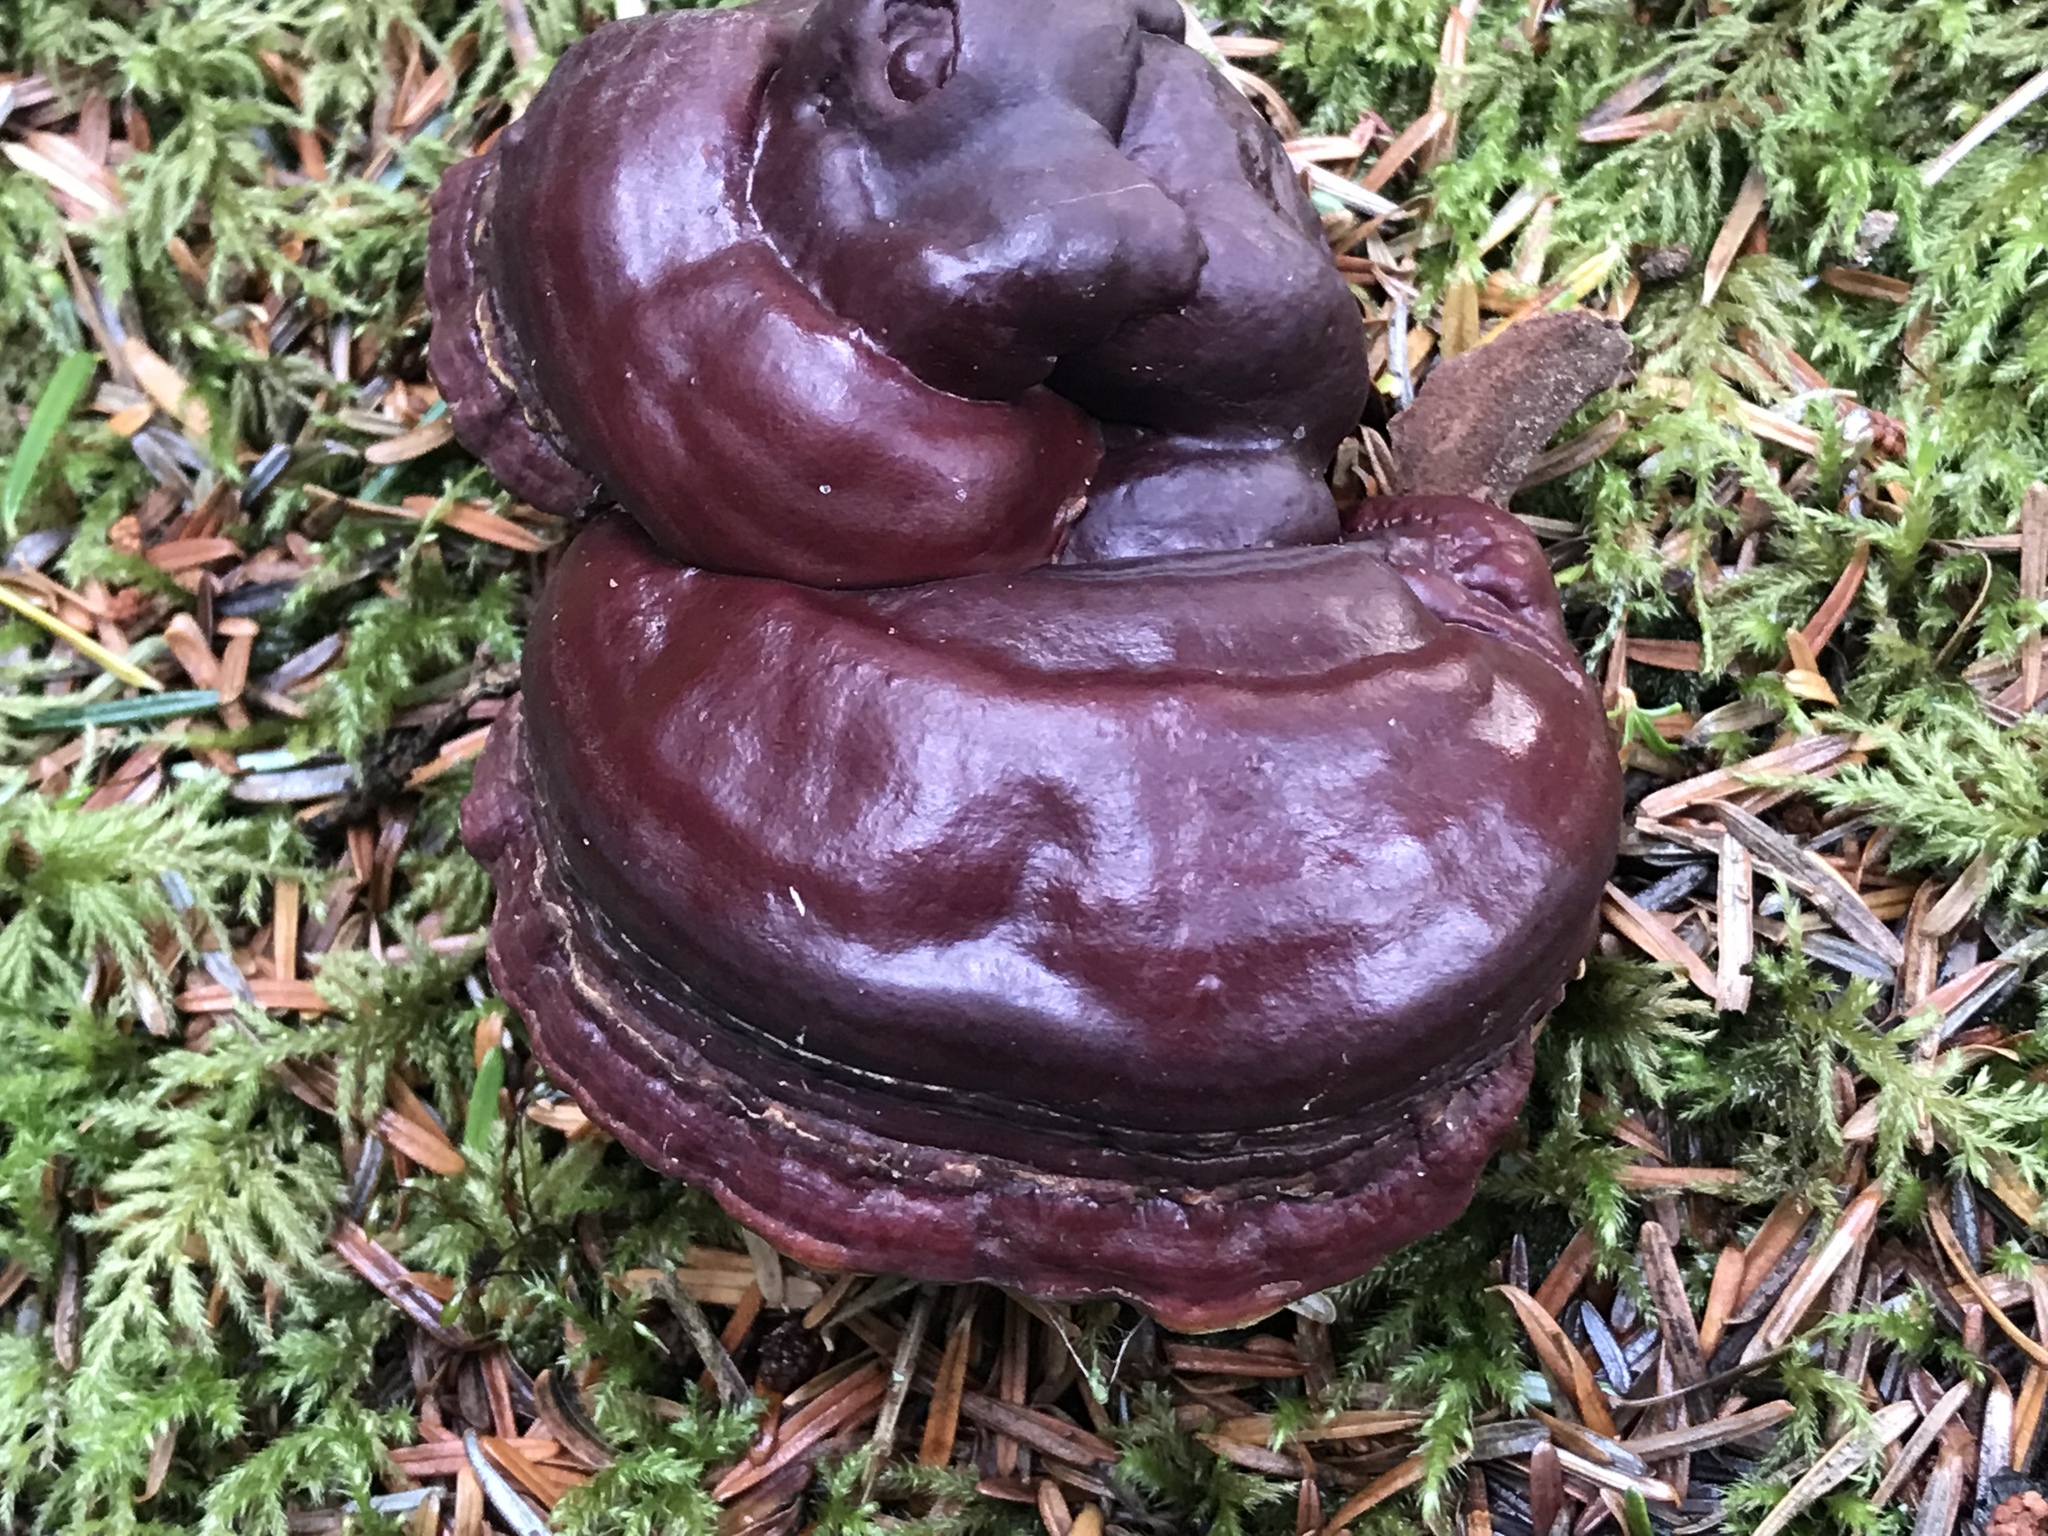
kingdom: Fungi
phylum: Basidiomycota
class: Agaricomycetes
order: Polyporales
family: Polyporaceae
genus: Ganoderma
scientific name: Ganoderma oregonense
